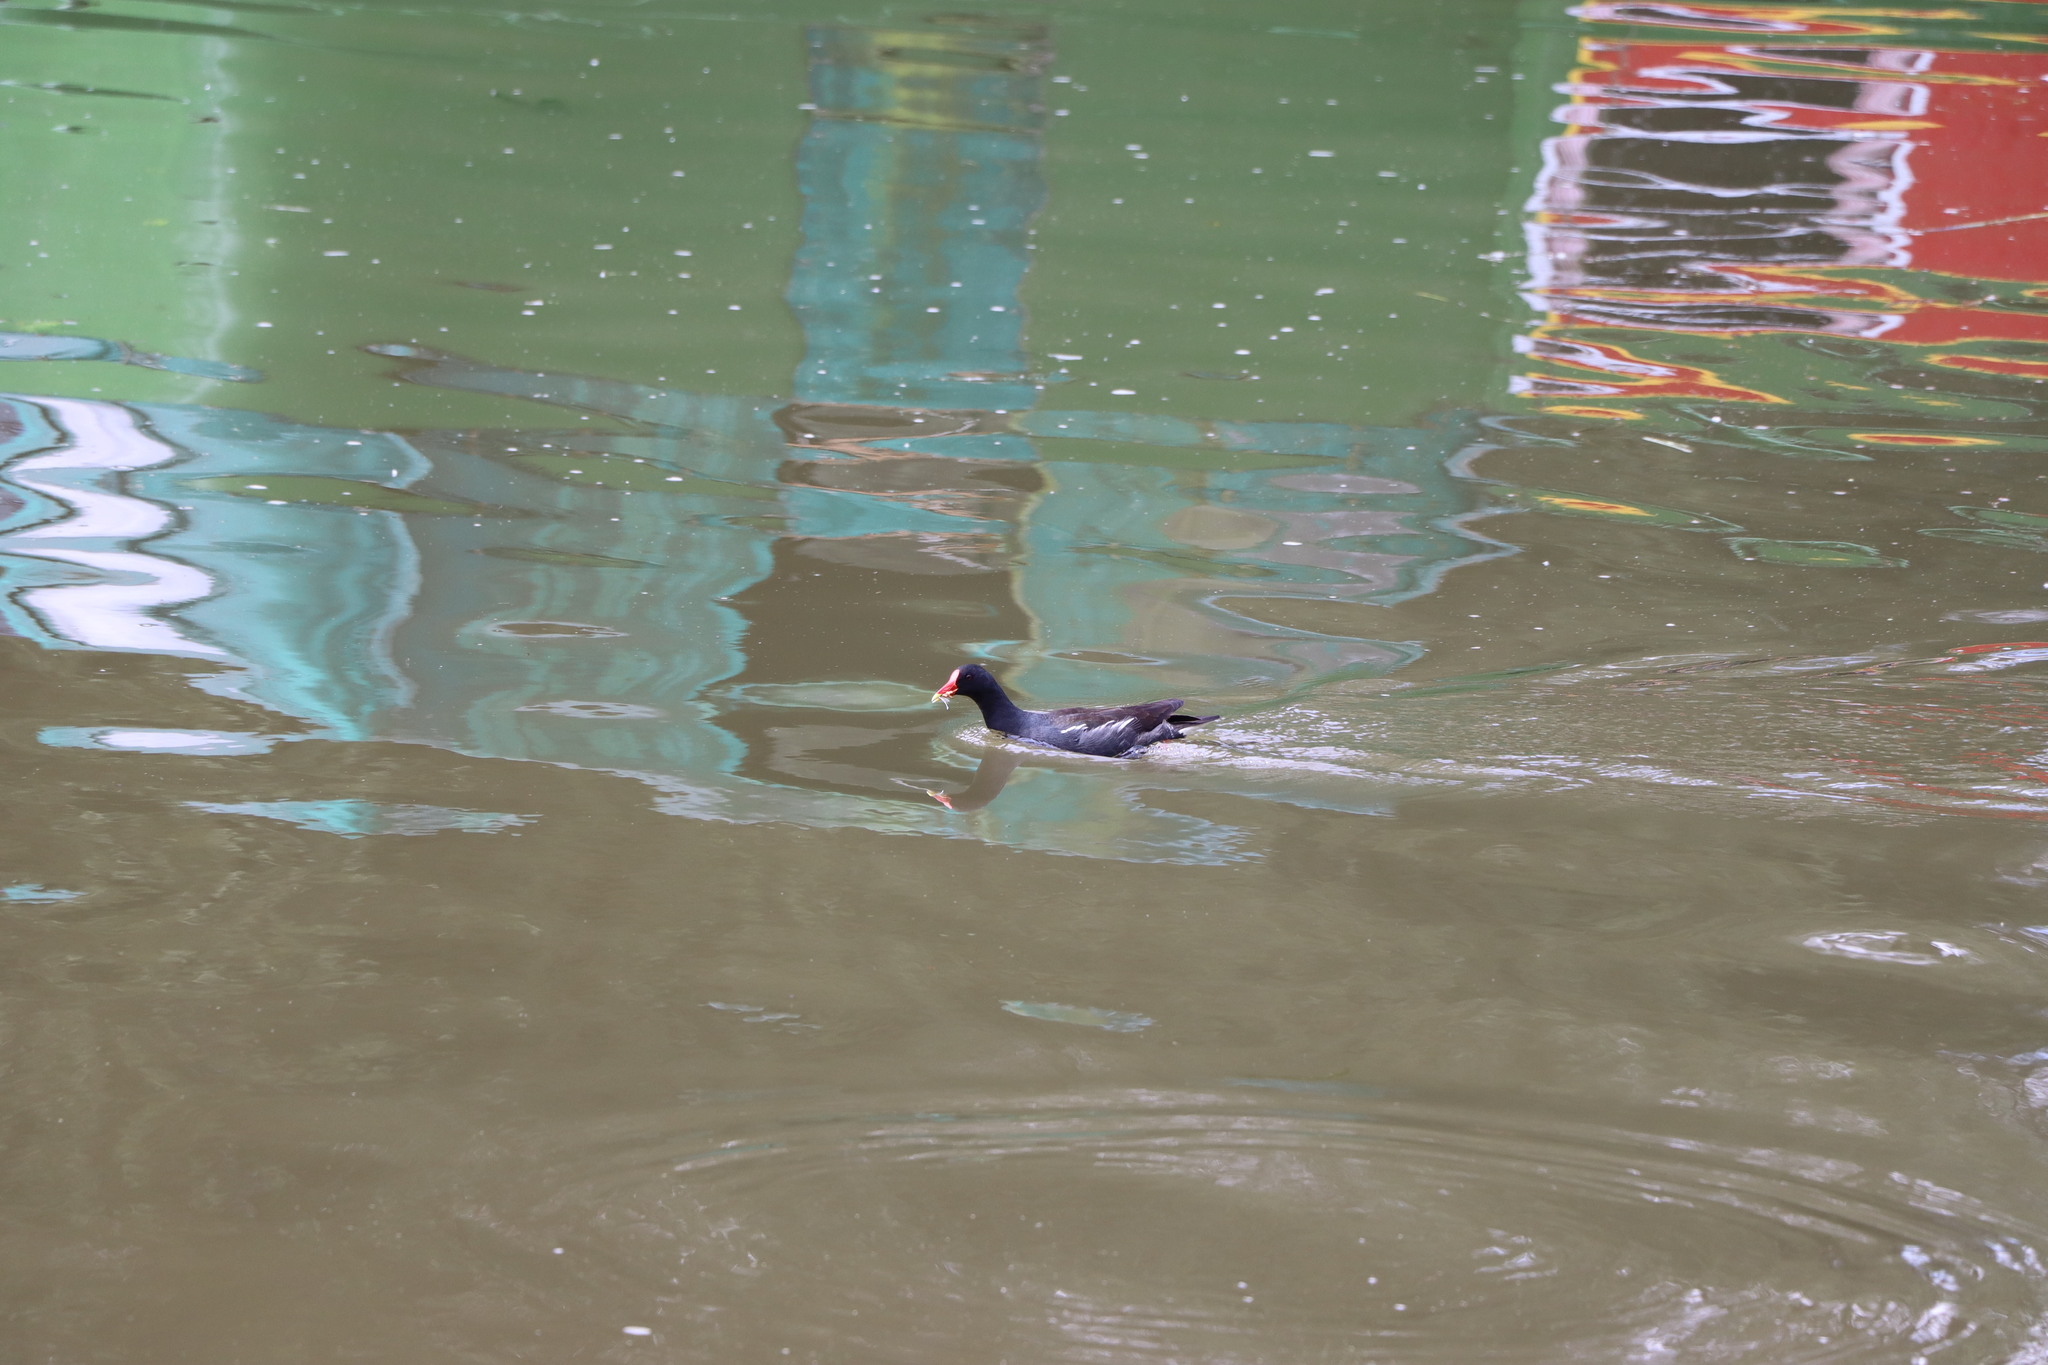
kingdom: Animalia
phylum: Chordata
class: Aves
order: Gruiformes
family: Rallidae
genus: Gallinula
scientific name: Gallinula chloropus
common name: Common moorhen
